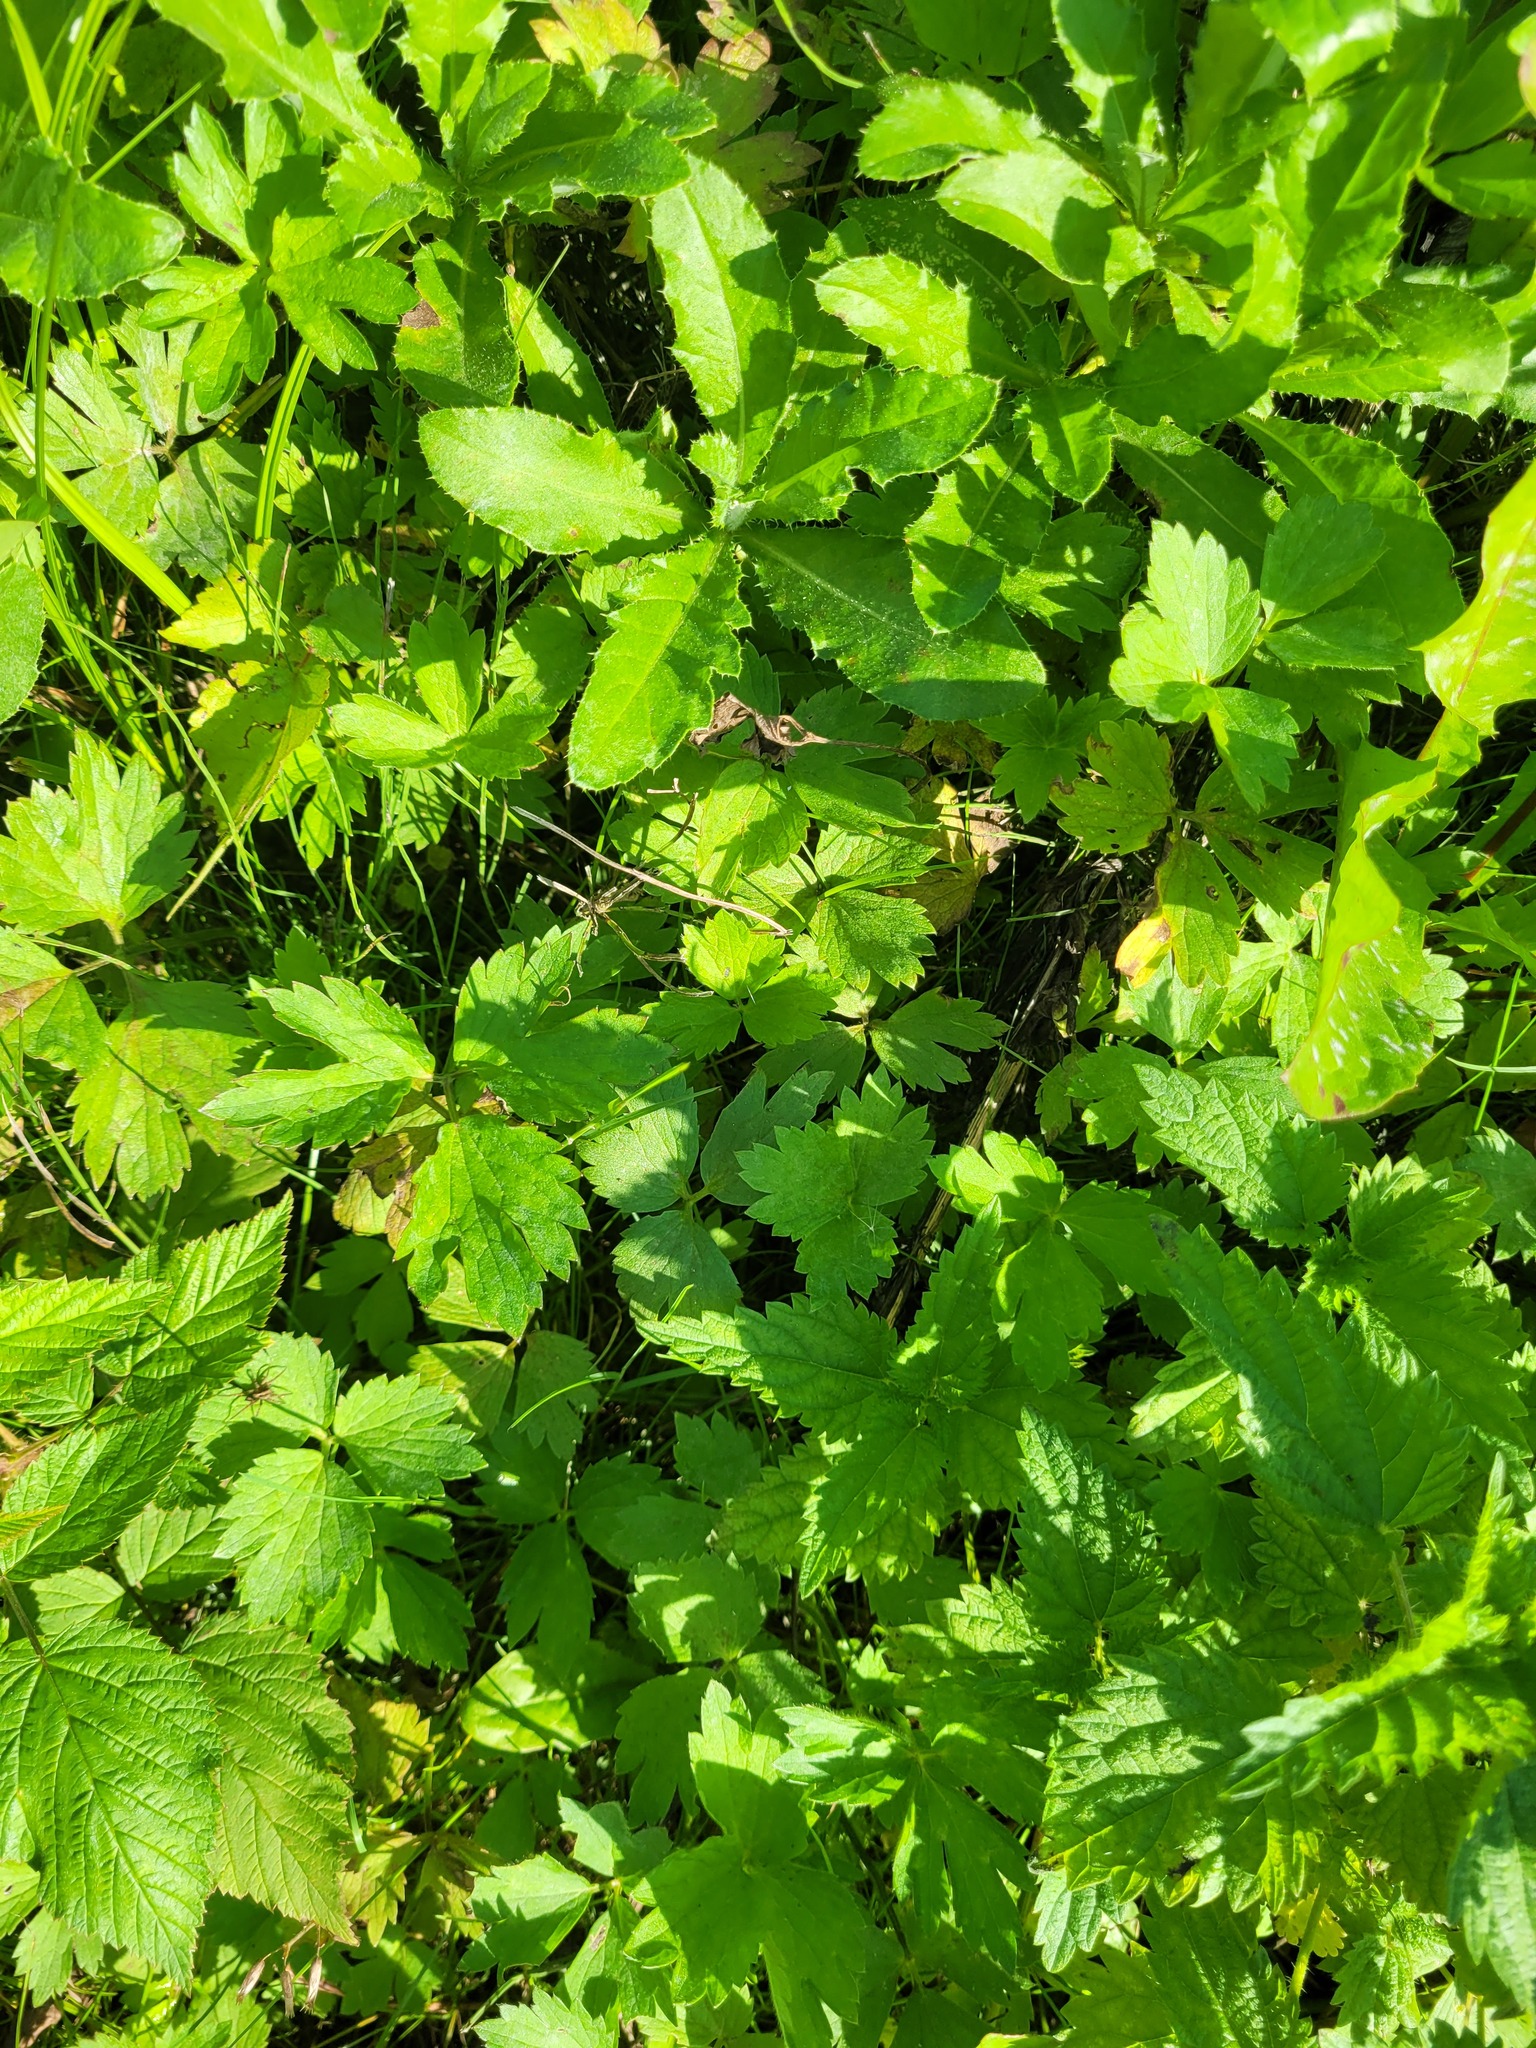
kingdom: Plantae
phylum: Tracheophyta
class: Magnoliopsida
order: Ranunculales
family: Ranunculaceae
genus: Ranunculus
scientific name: Ranunculus repens
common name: Creeping buttercup
